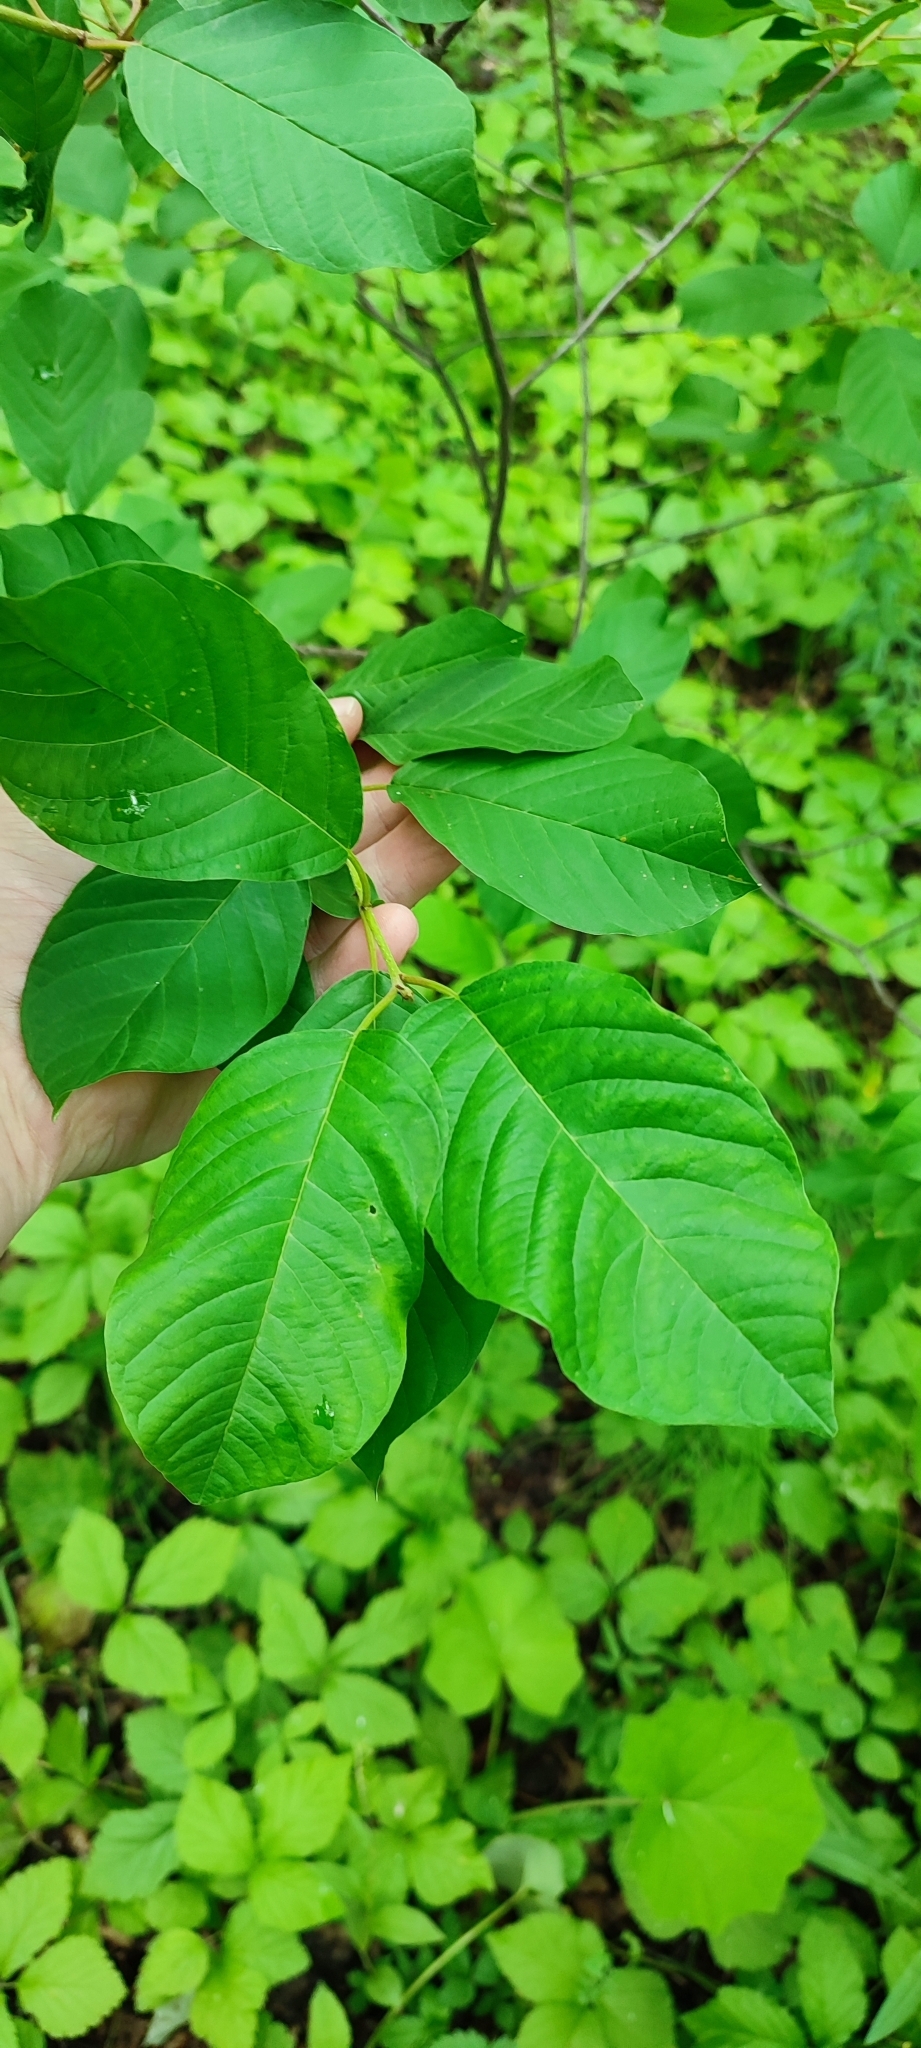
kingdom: Plantae
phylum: Tracheophyta
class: Magnoliopsida
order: Rosales
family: Rhamnaceae
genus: Frangula
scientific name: Frangula alnus
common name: Alder buckthorn
